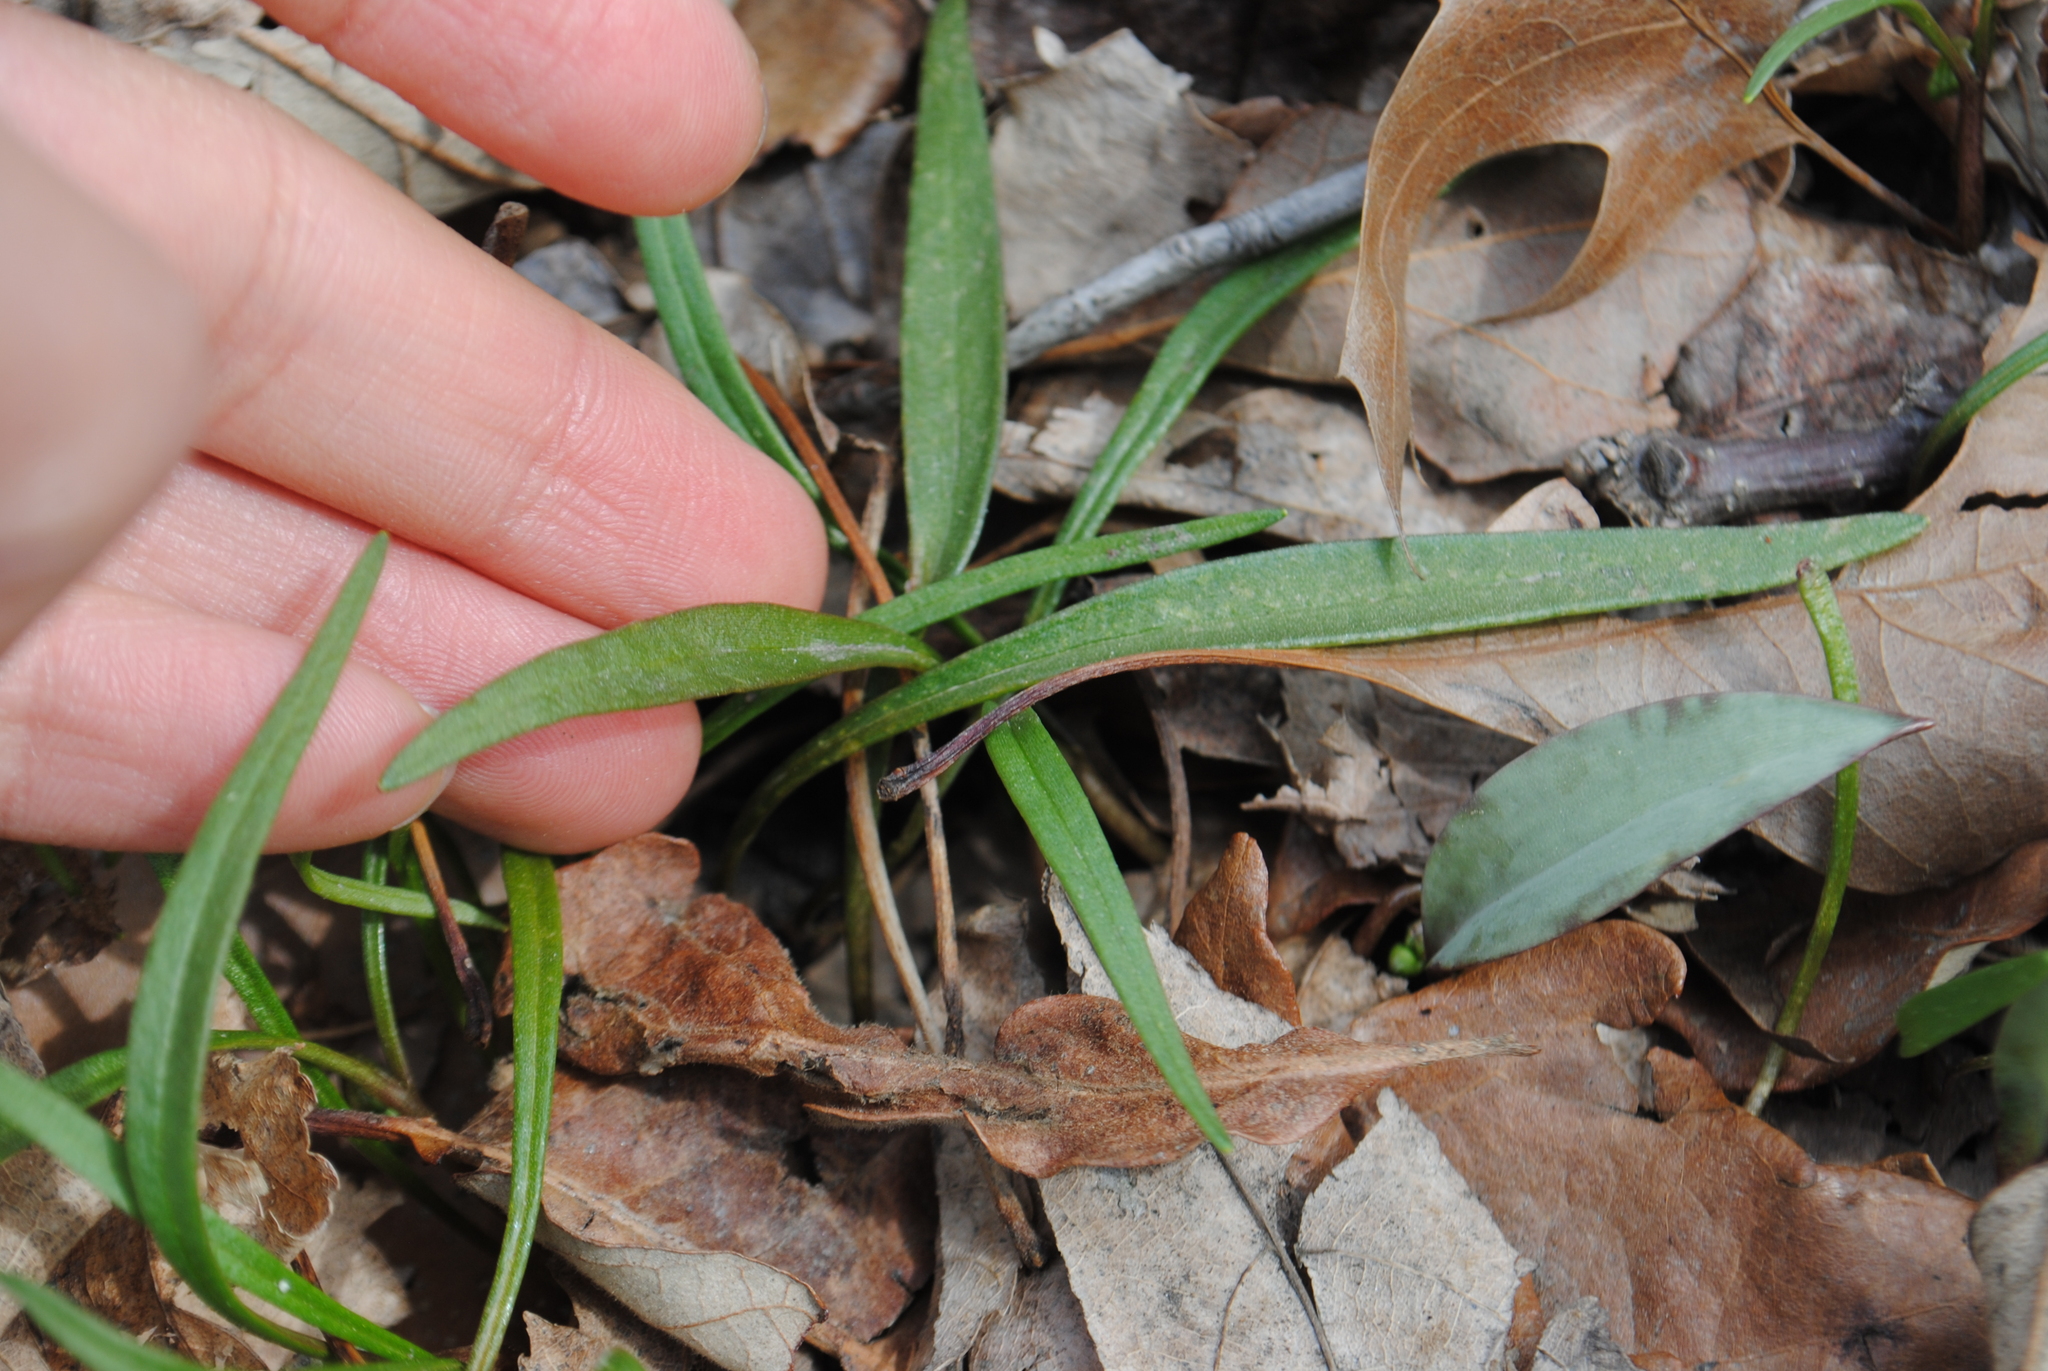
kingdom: Plantae
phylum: Tracheophyta
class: Magnoliopsida
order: Caryophyllales
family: Montiaceae
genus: Claytonia
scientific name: Claytonia virginica
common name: Virginia springbeauty
